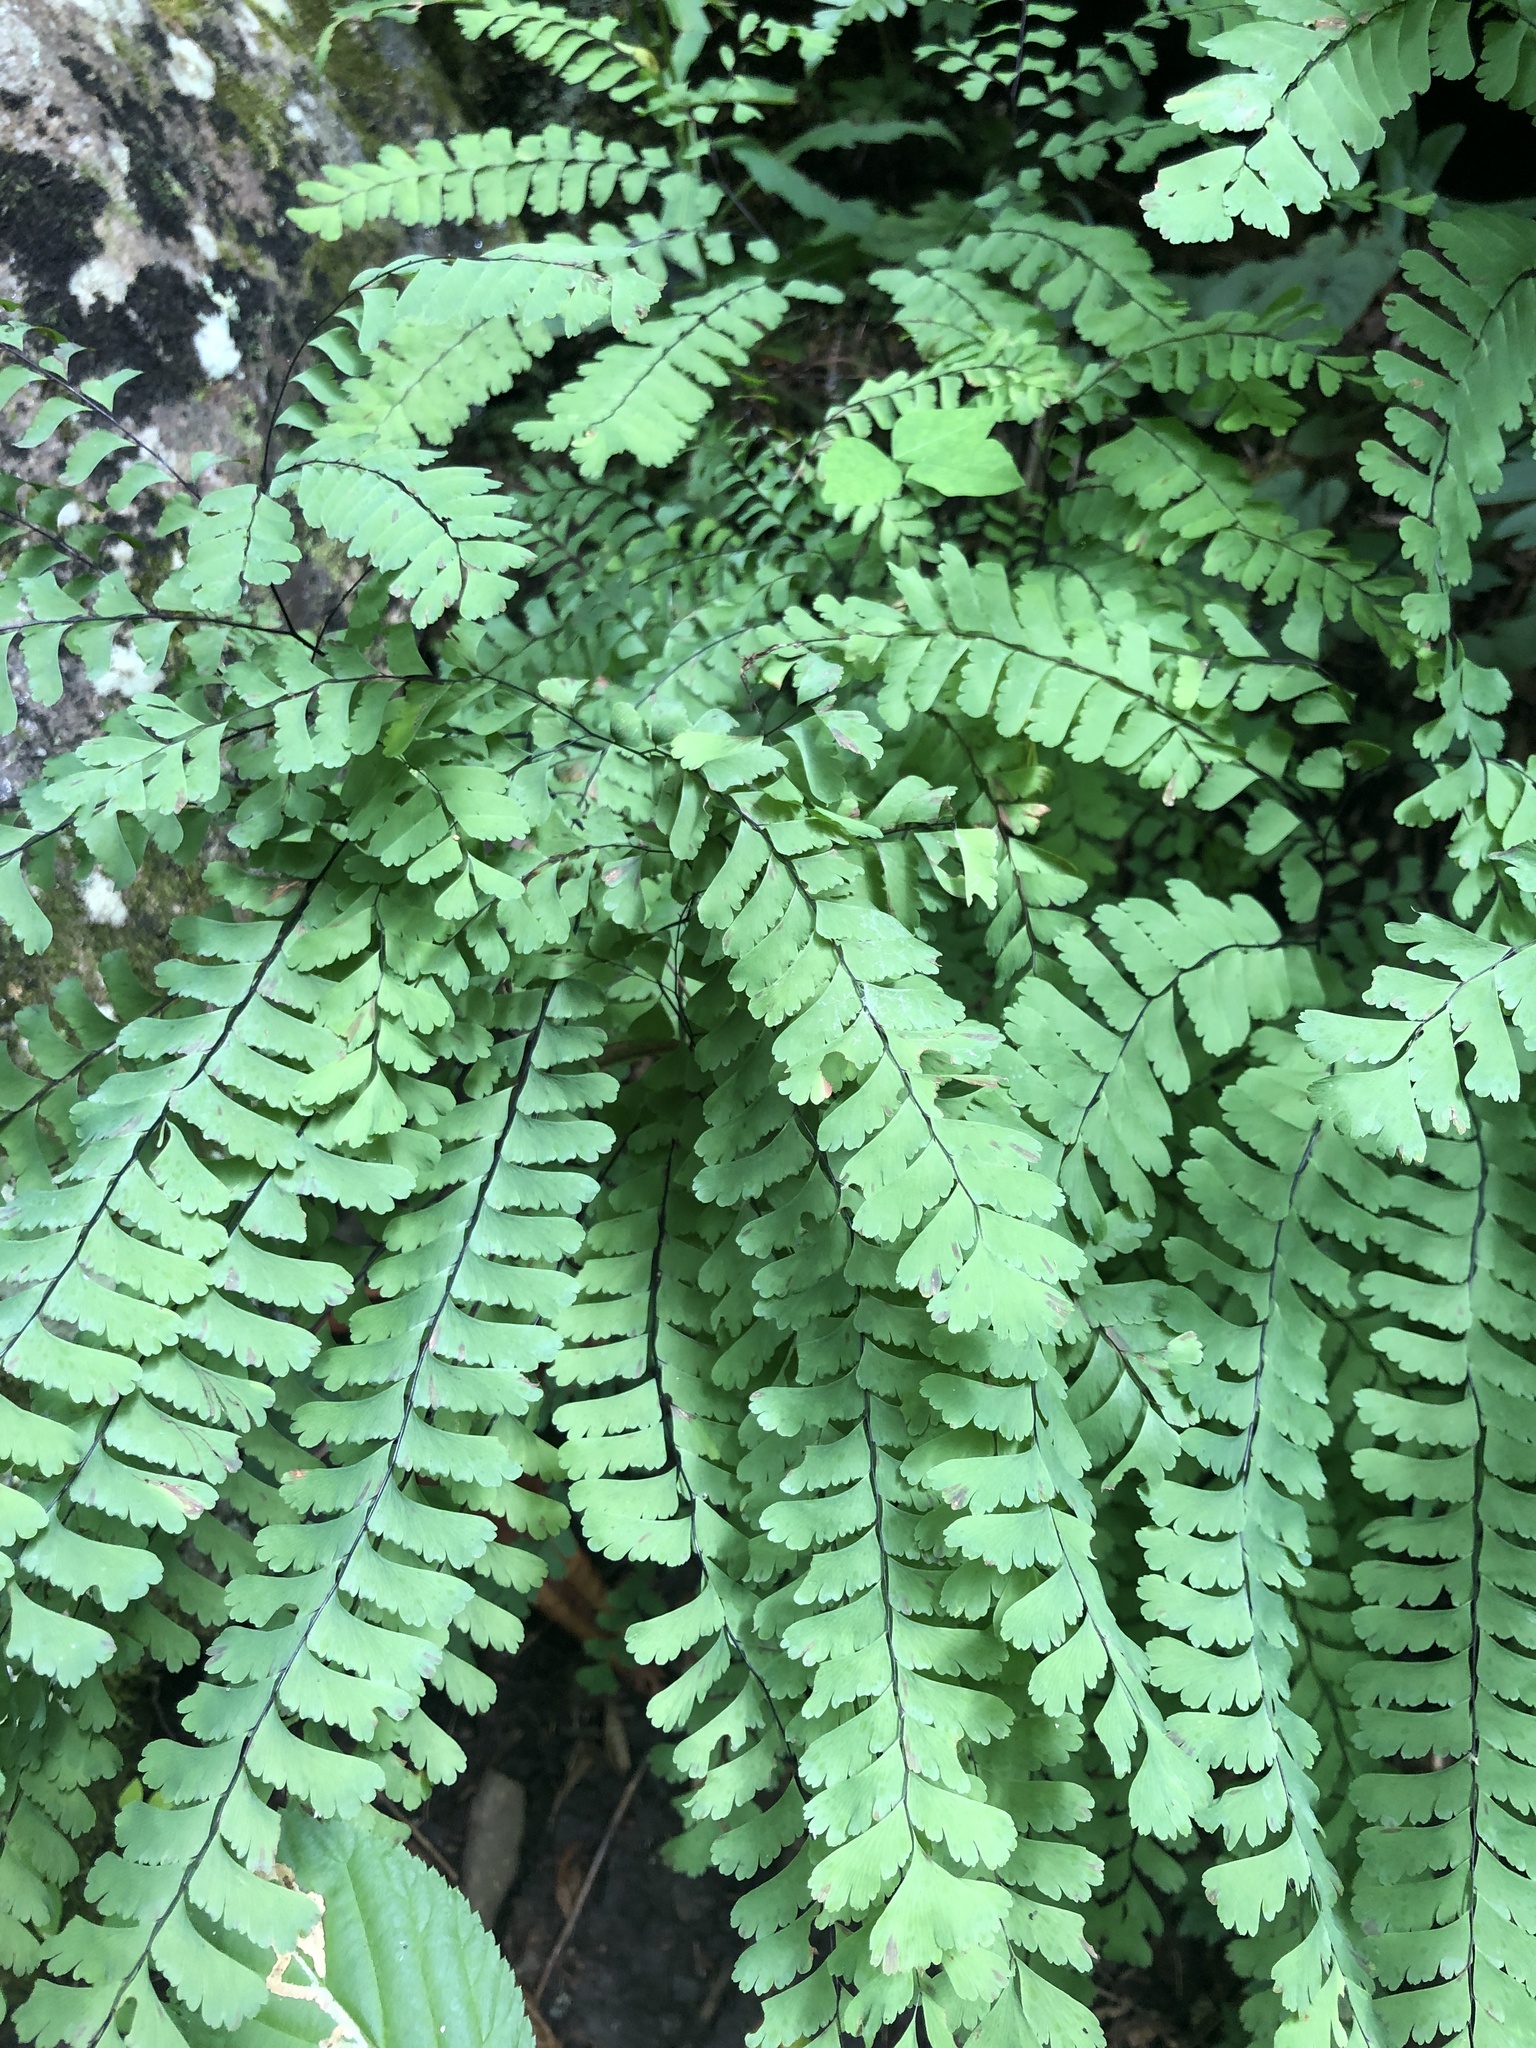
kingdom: Plantae
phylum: Tracheophyta
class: Polypodiopsida
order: Polypodiales
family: Pteridaceae
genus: Adiantum
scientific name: Adiantum pedatum
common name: Five-finger fern
